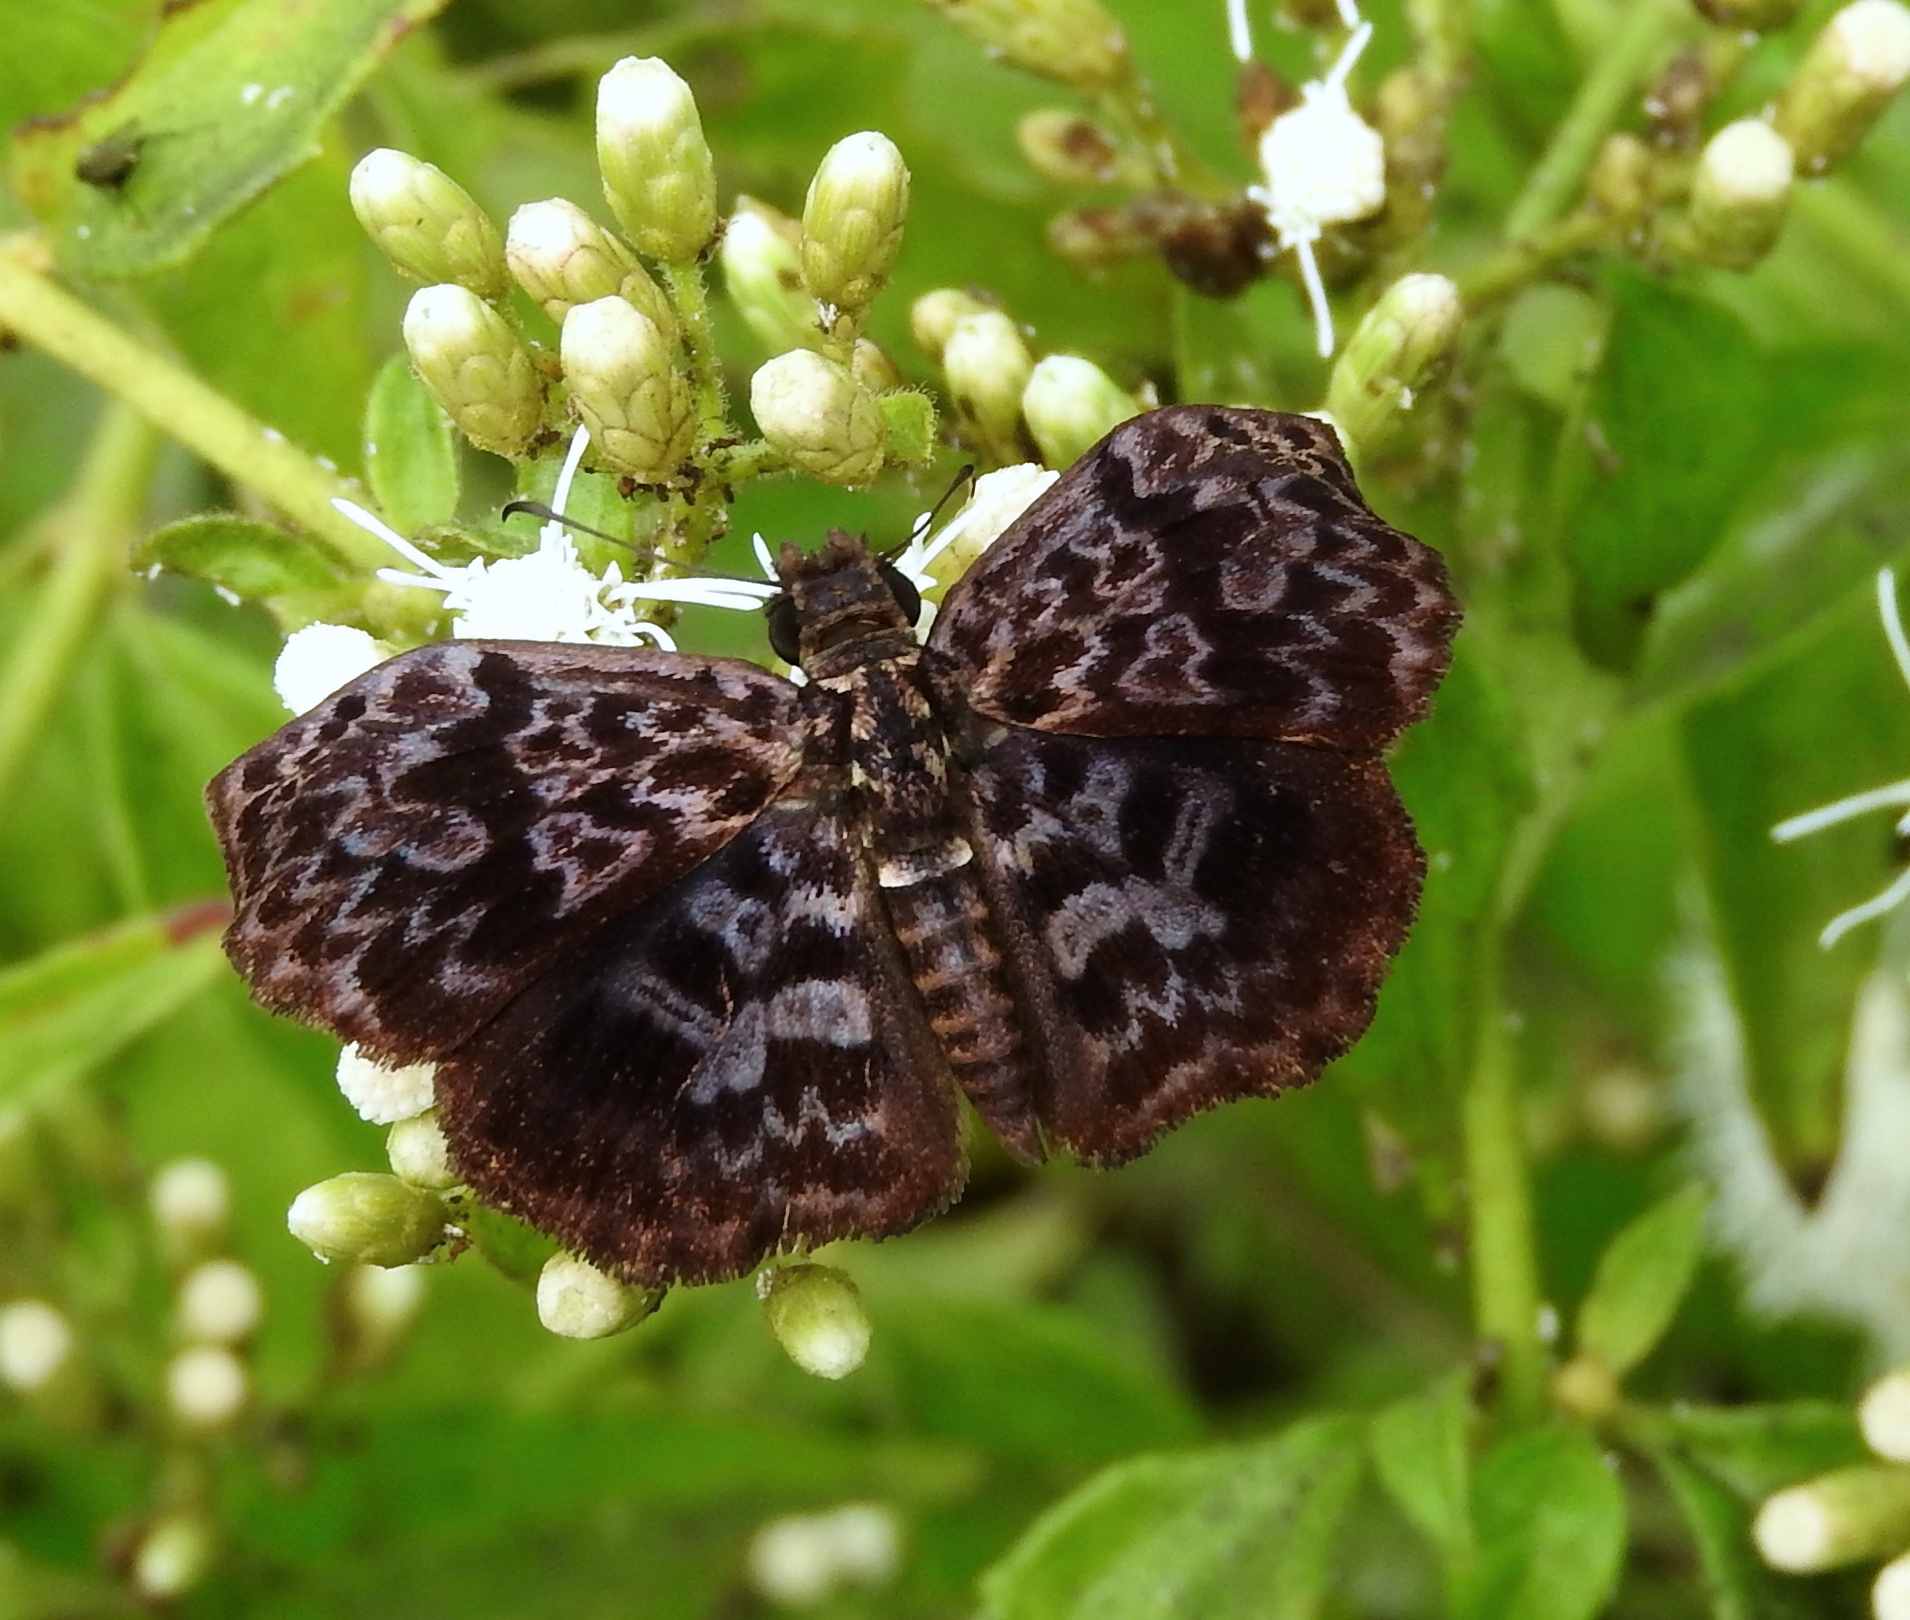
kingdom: Animalia
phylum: Arthropoda
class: Insecta
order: Lepidoptera
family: Hesperiidae
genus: Cycloglypha
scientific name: Cycloglypha thrasibulus
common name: Widespread bent-skipper
